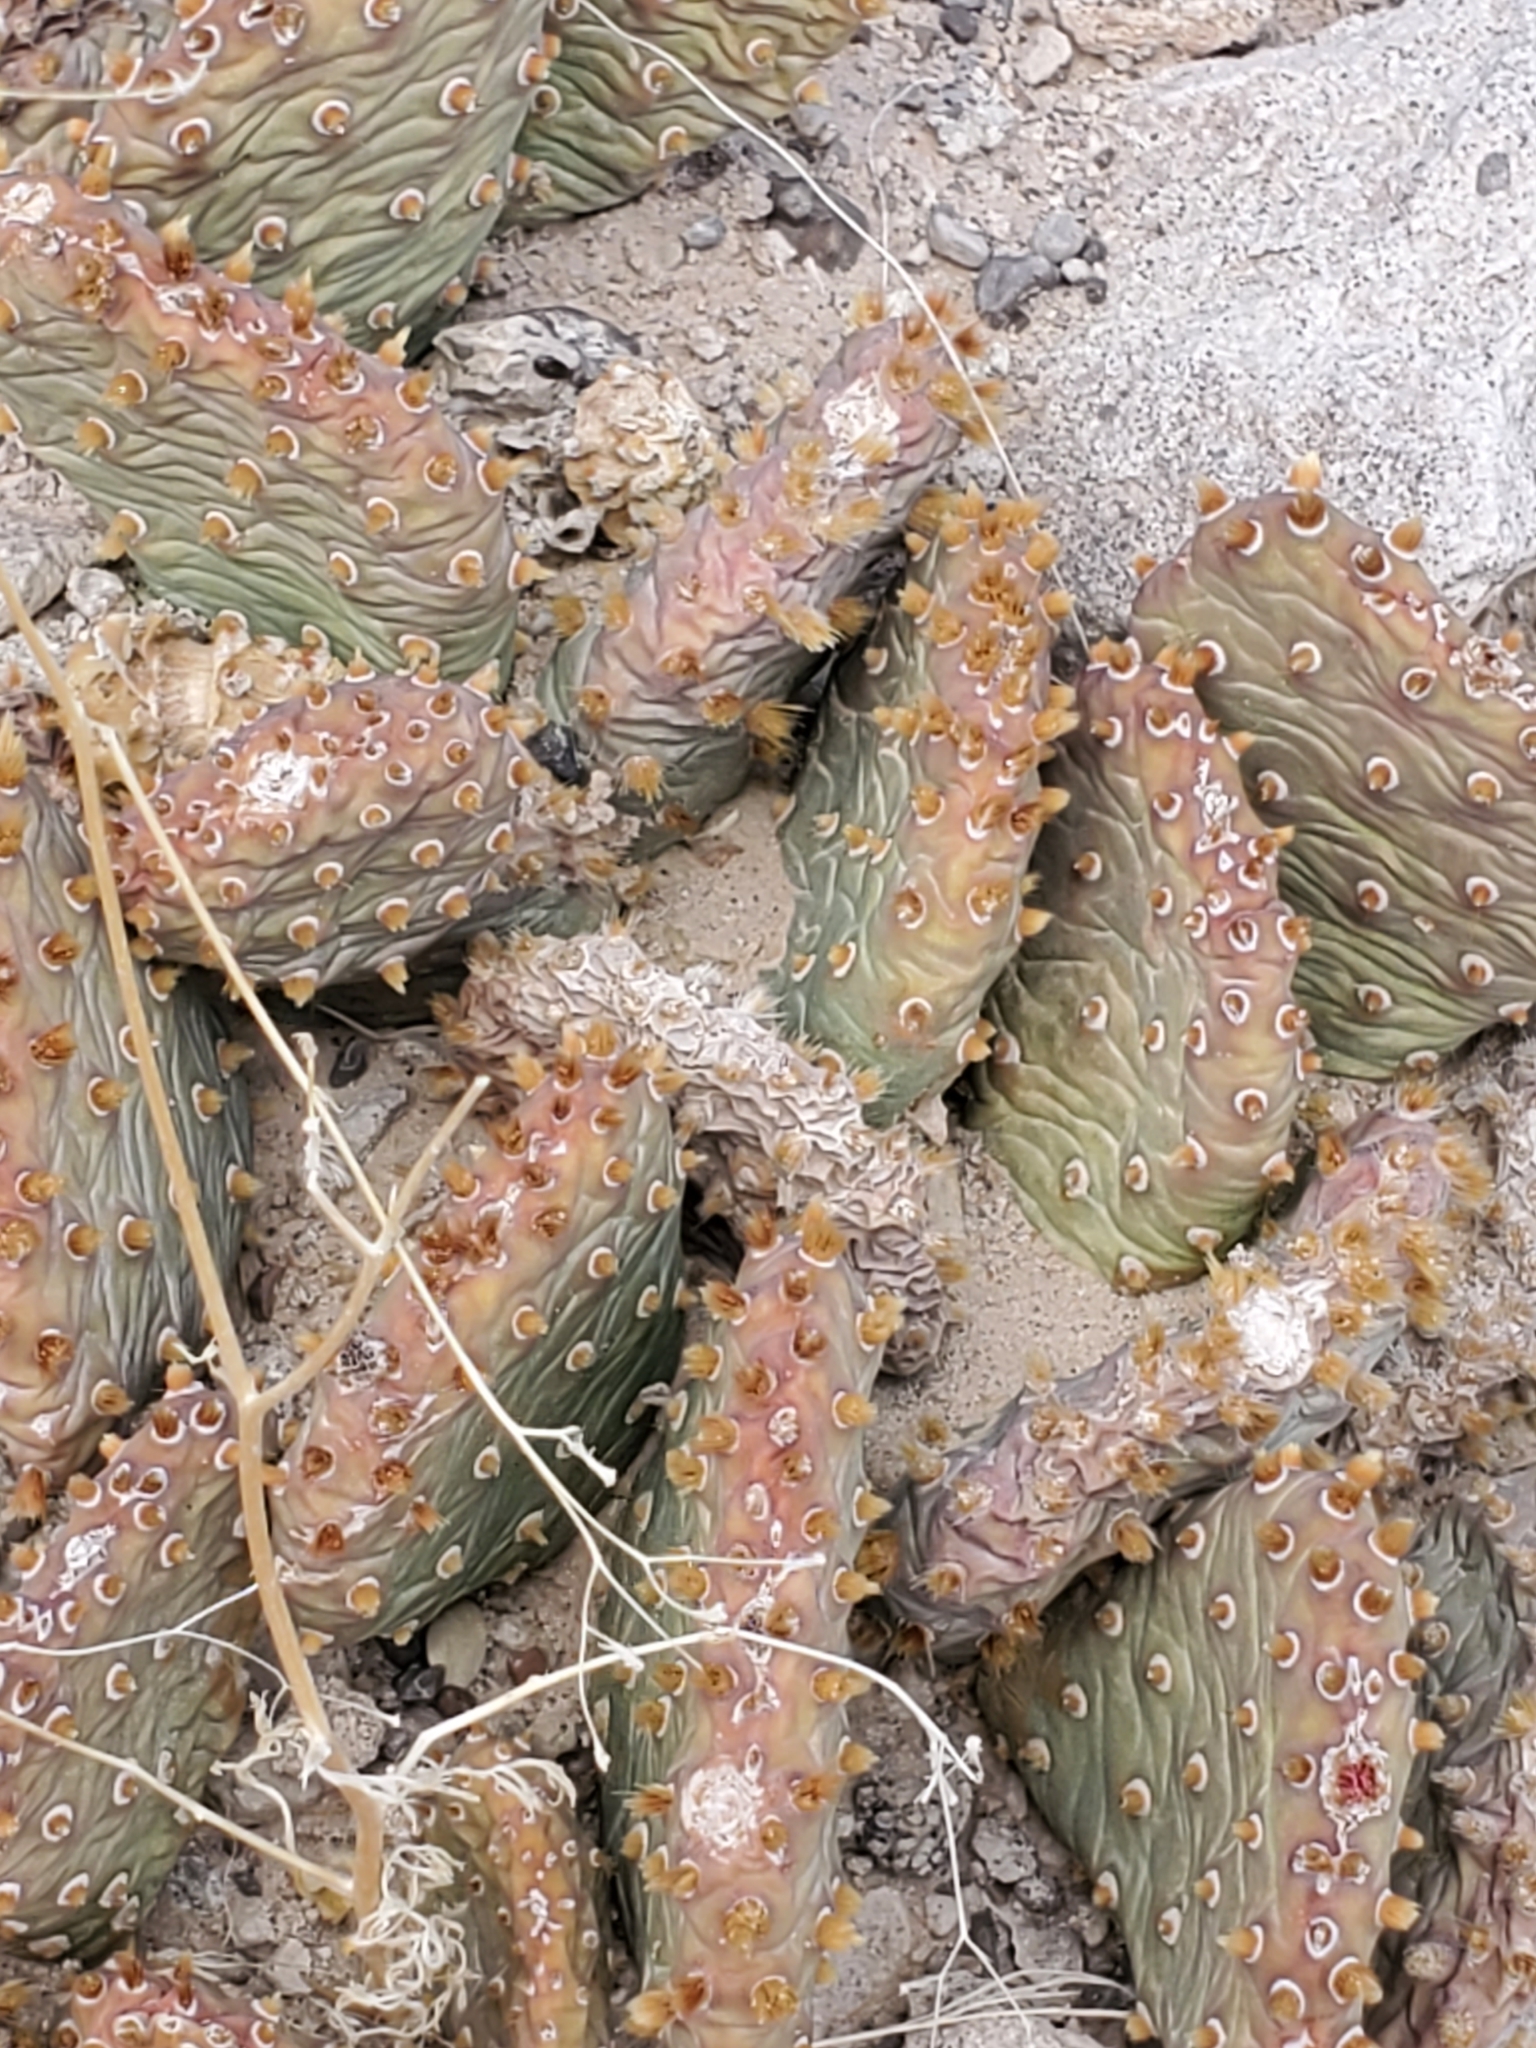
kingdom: Plantae
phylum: Tracheophyta
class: Magnoliopsida
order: Caryophyllales
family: Cactaceae
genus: Opuntia
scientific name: Opuntia basilaris
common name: Beavertail prickly-pear
